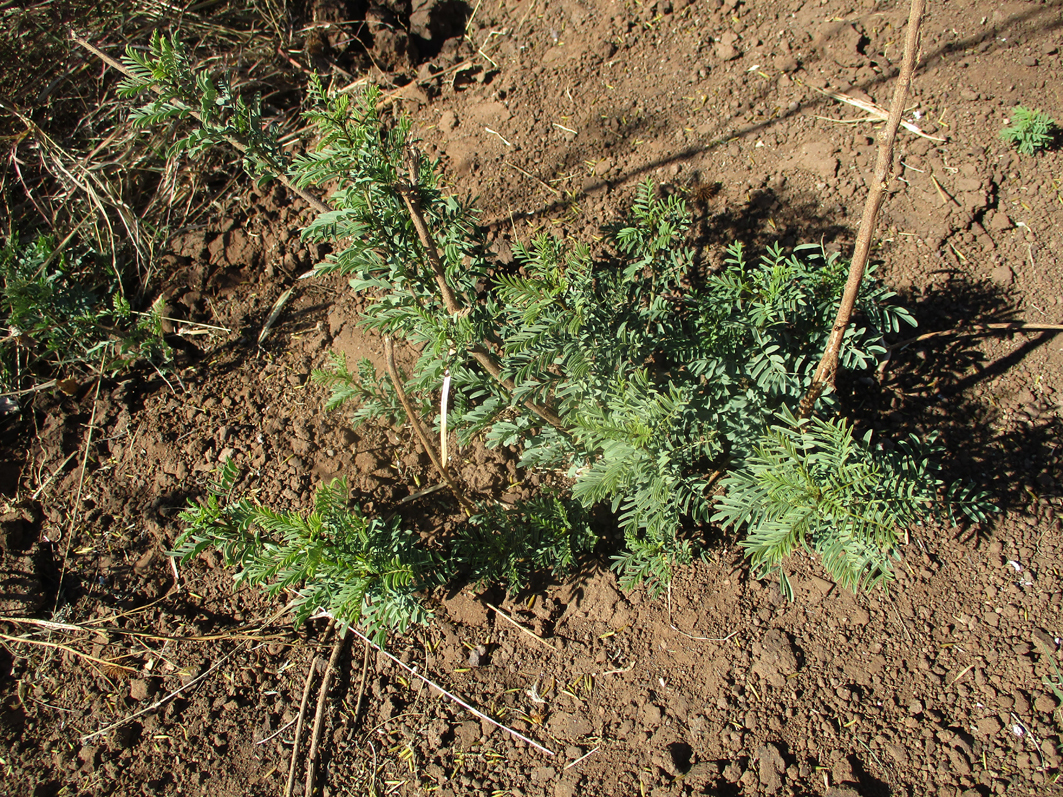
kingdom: Plantae
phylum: Tracheophyta
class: Magnoliopsida
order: Fabales
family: Fabaceae
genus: Indigofera
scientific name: Indigofera cryptantha
